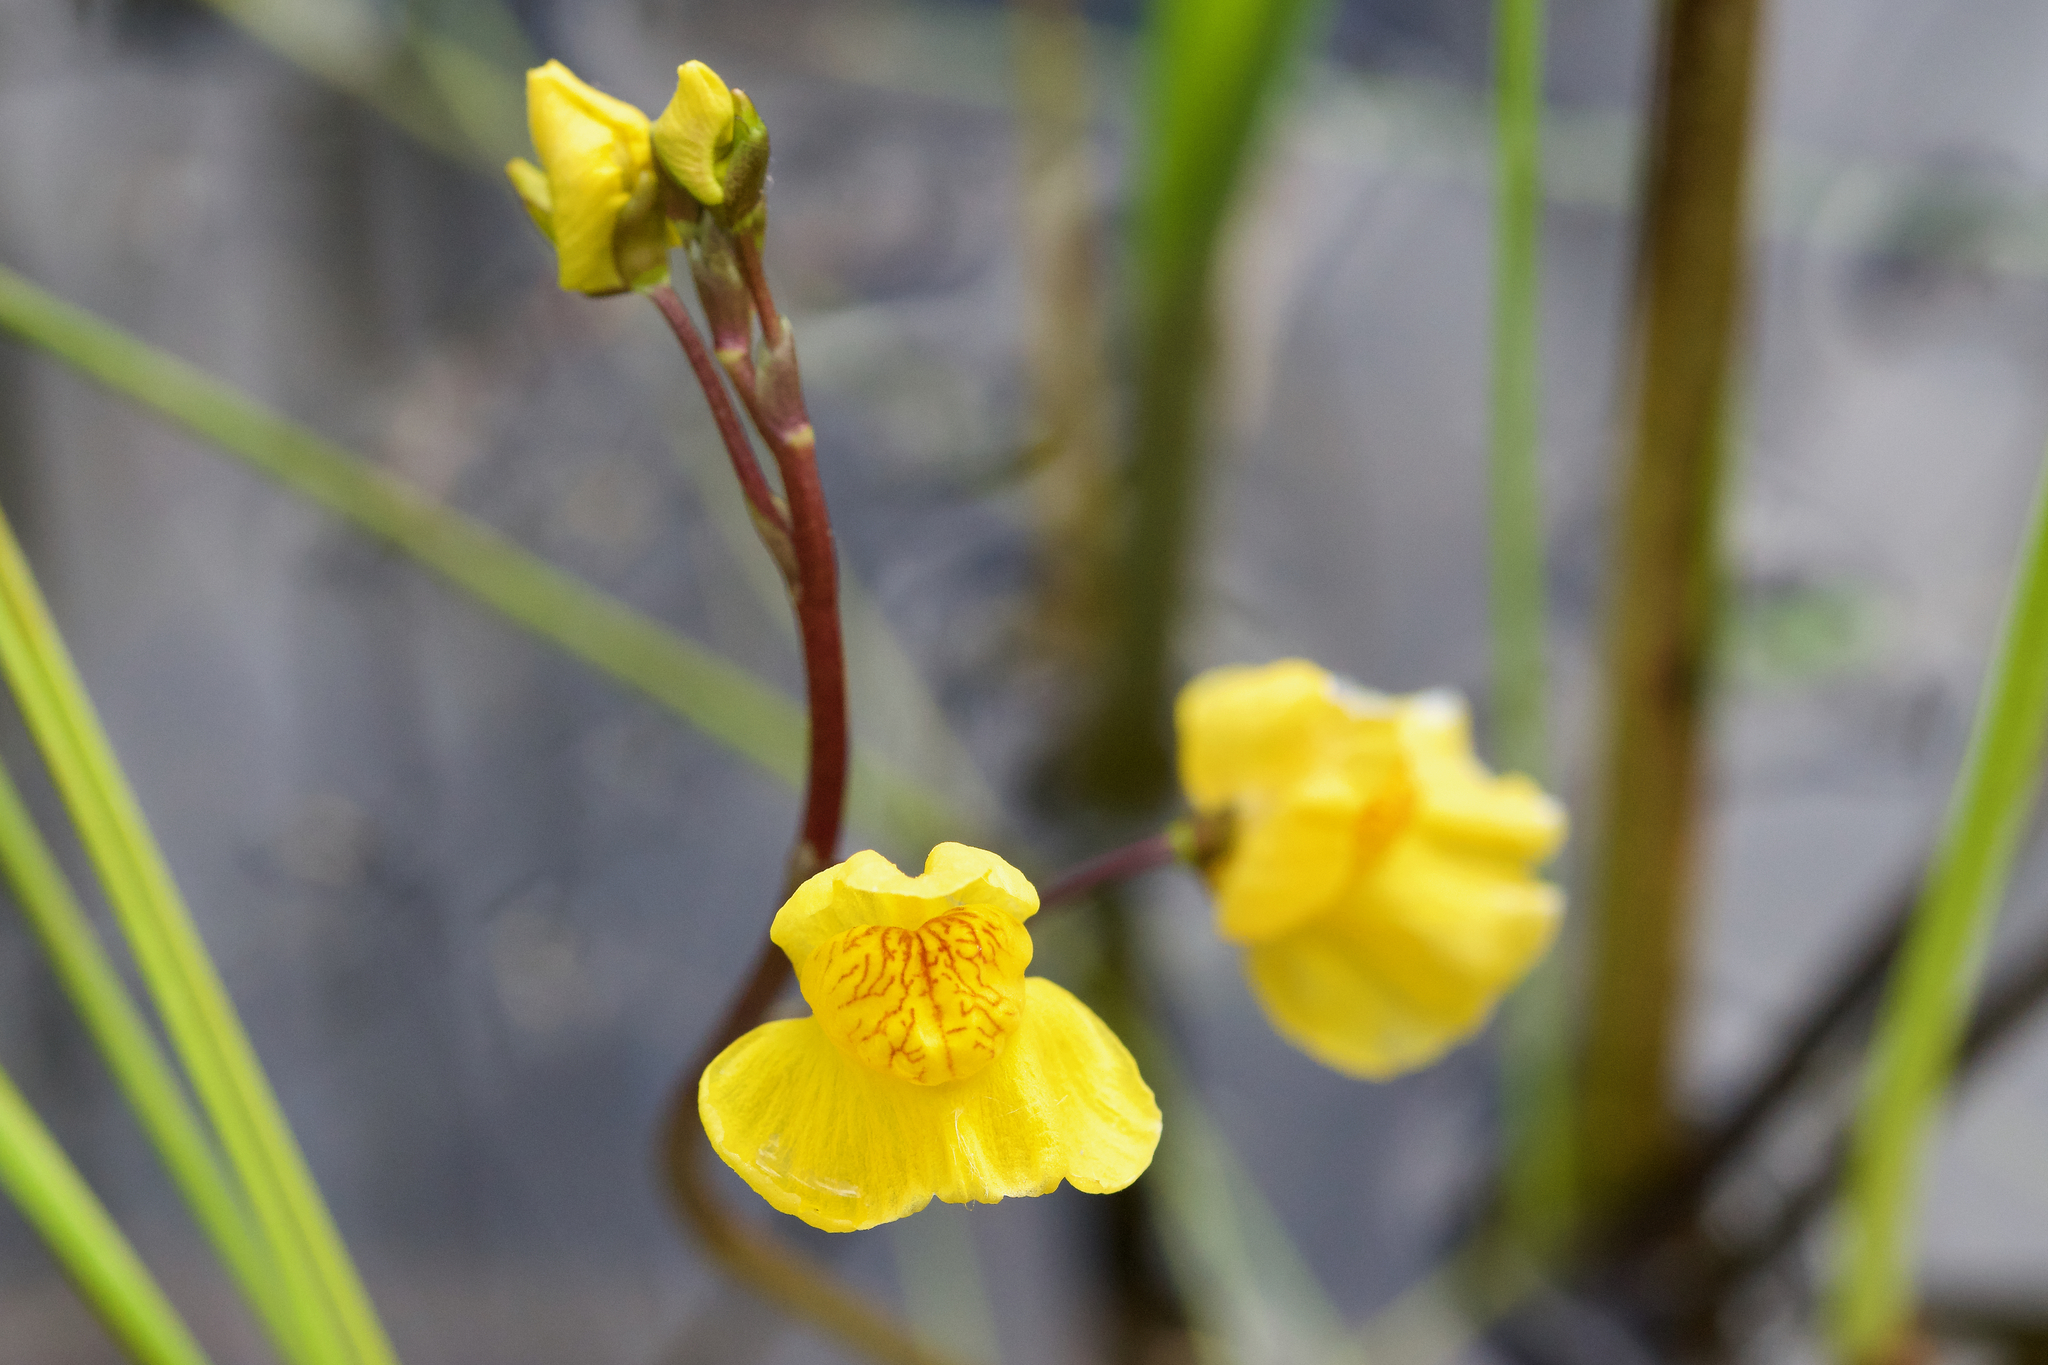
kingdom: Plantae
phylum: Tracheophyta
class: Magnoliopsida
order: Lamiales
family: Lentibulariaceae
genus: Utricularia
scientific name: Utricularia macrorhiza
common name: Common bladderwort
